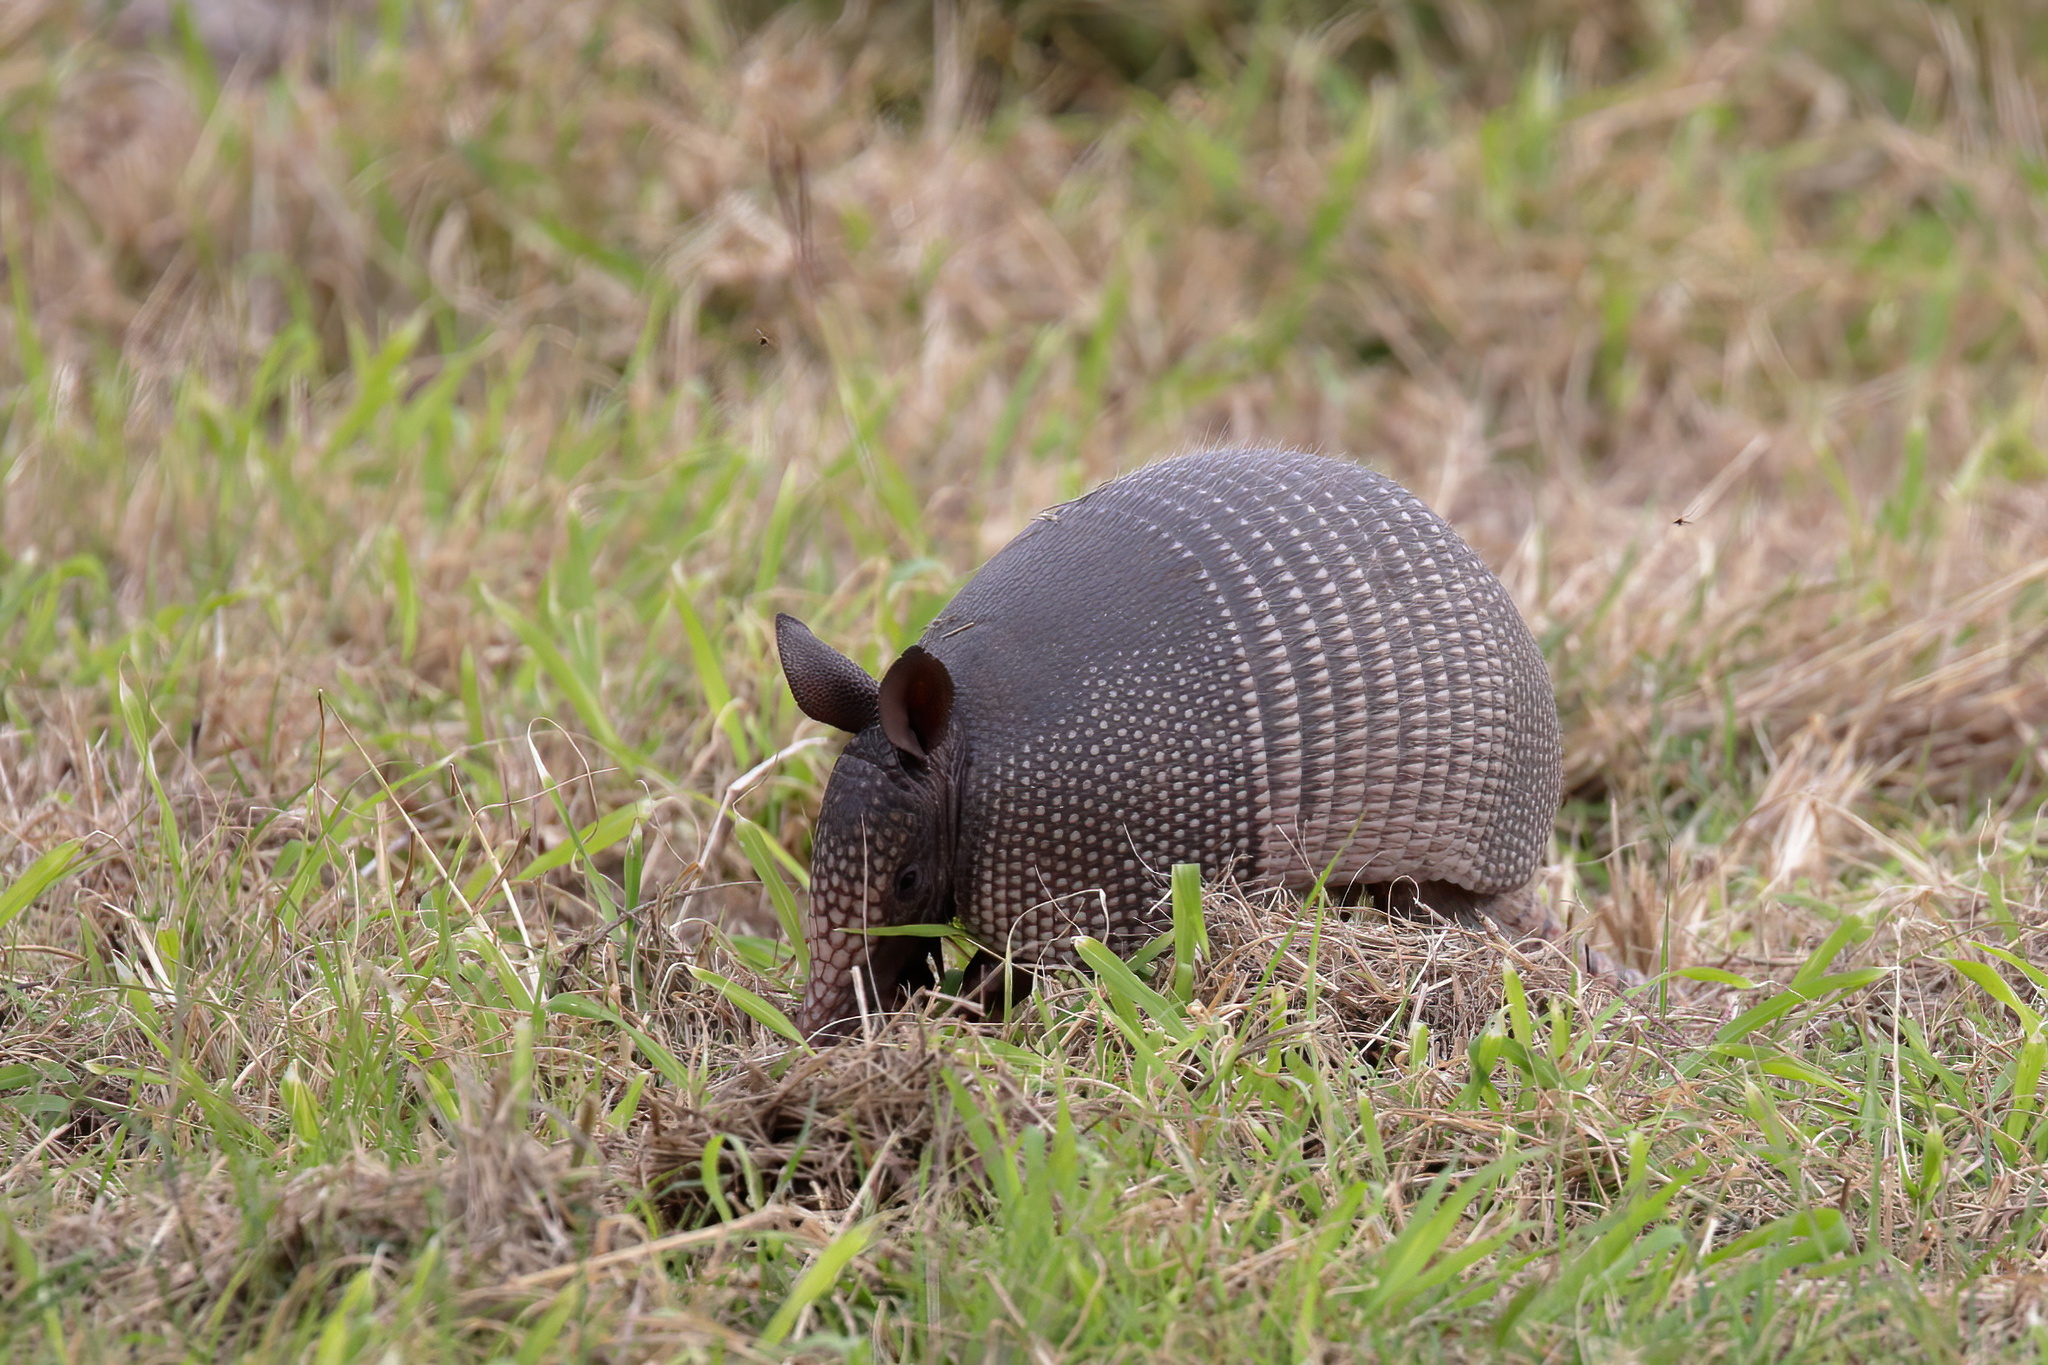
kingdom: Animalia
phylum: Chordata
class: Mammalia
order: Cingulata
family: Dasypodidae
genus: Dasypus
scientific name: Dasypus novemcinctus
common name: Nine-banded armadillo
